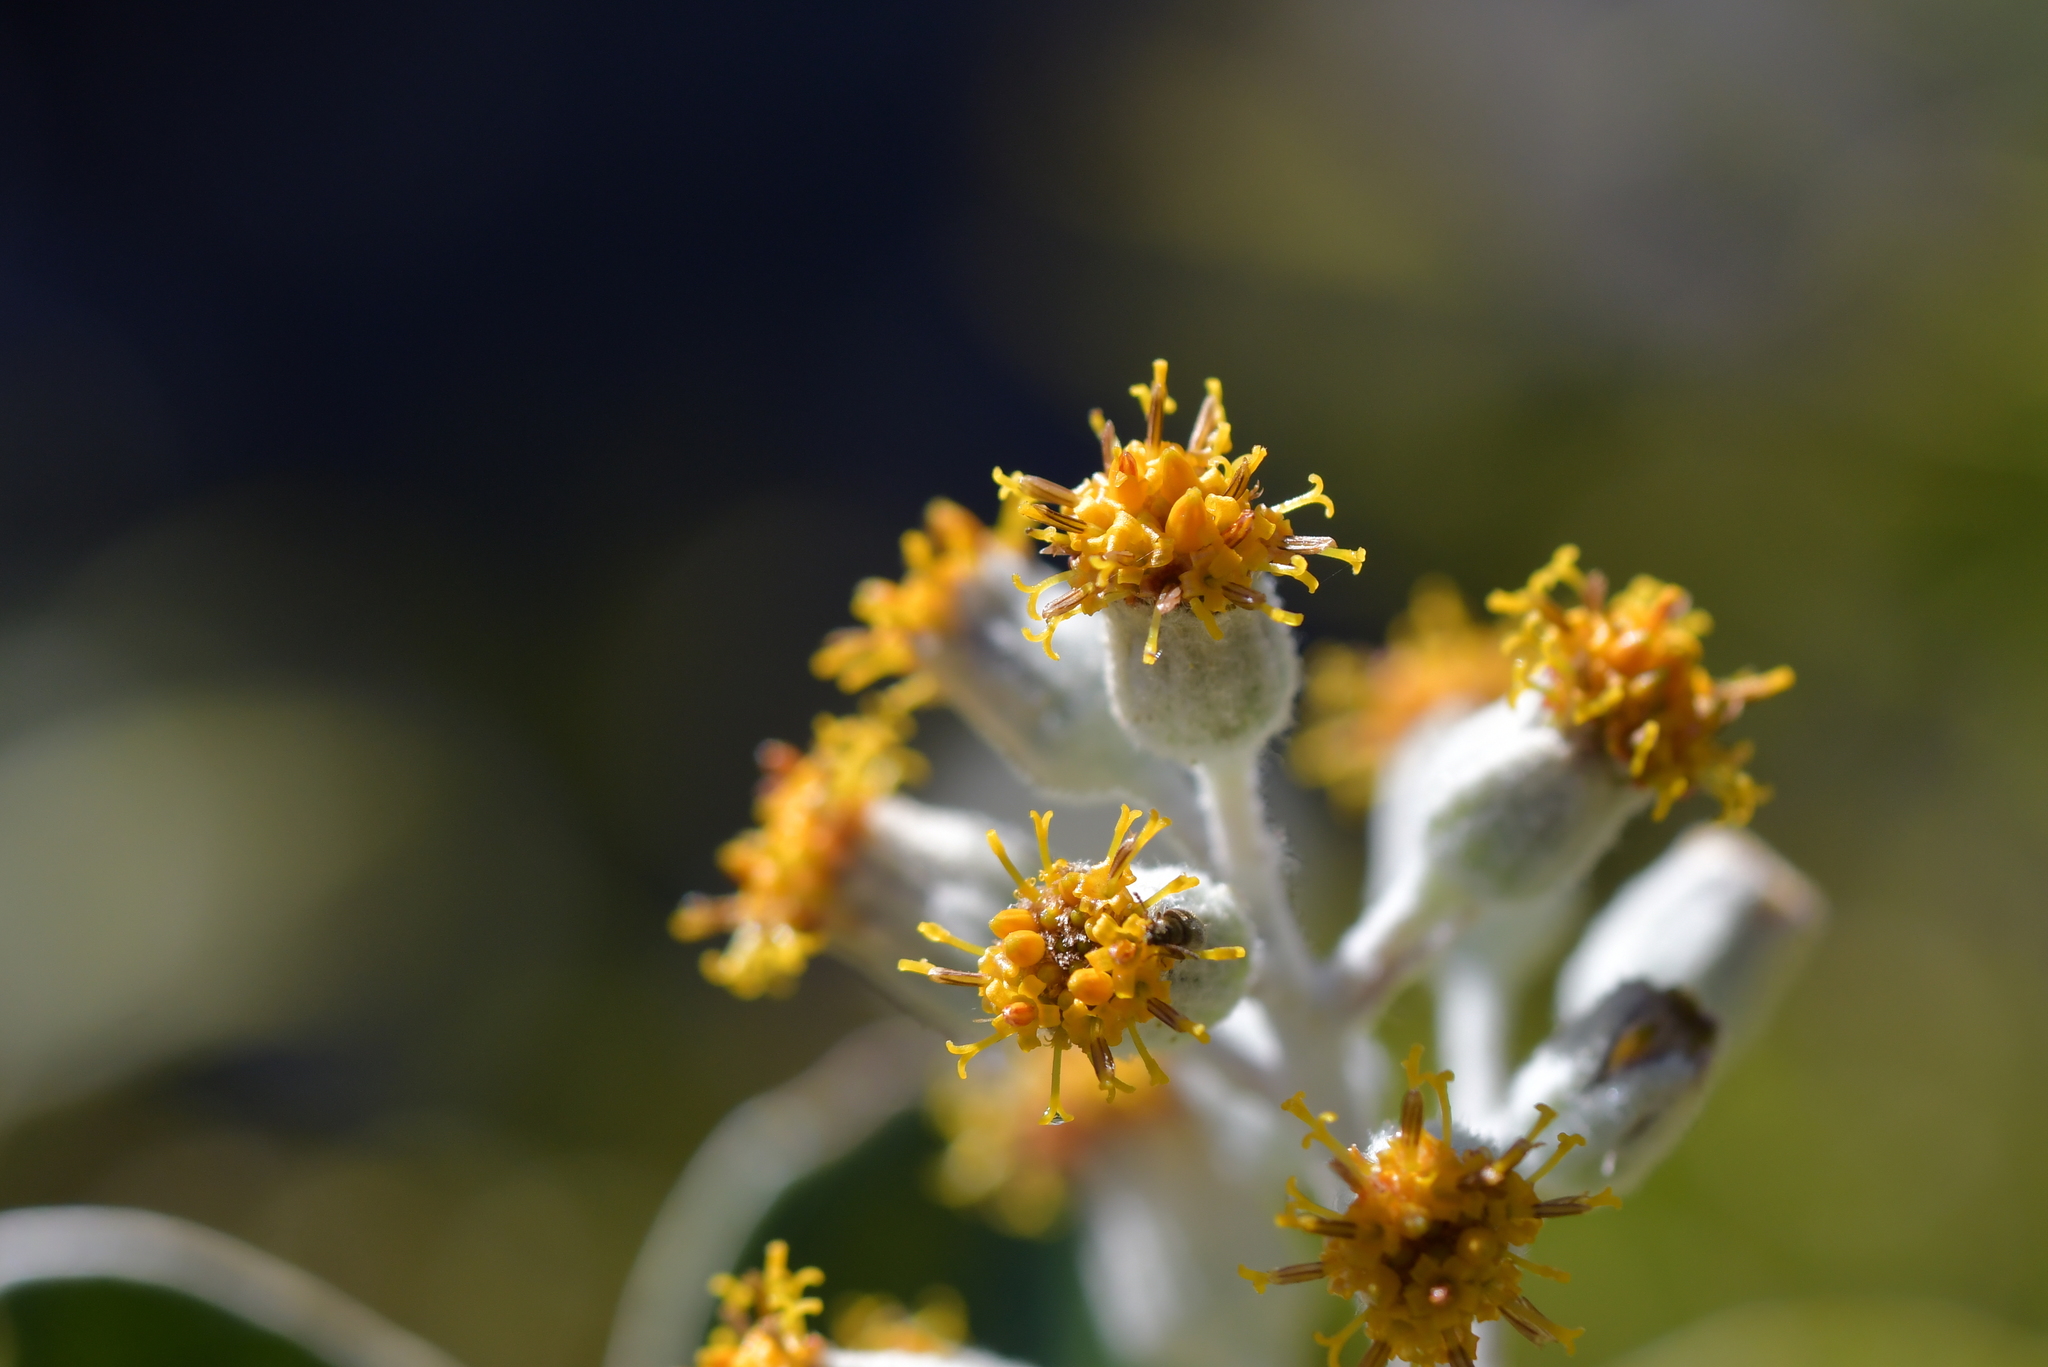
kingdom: Plantae
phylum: Tracheophyta
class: Magnoliopsida
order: Asterales
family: Asteraceae
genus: Brachyglottis
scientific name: Brachyglottis buchananii
